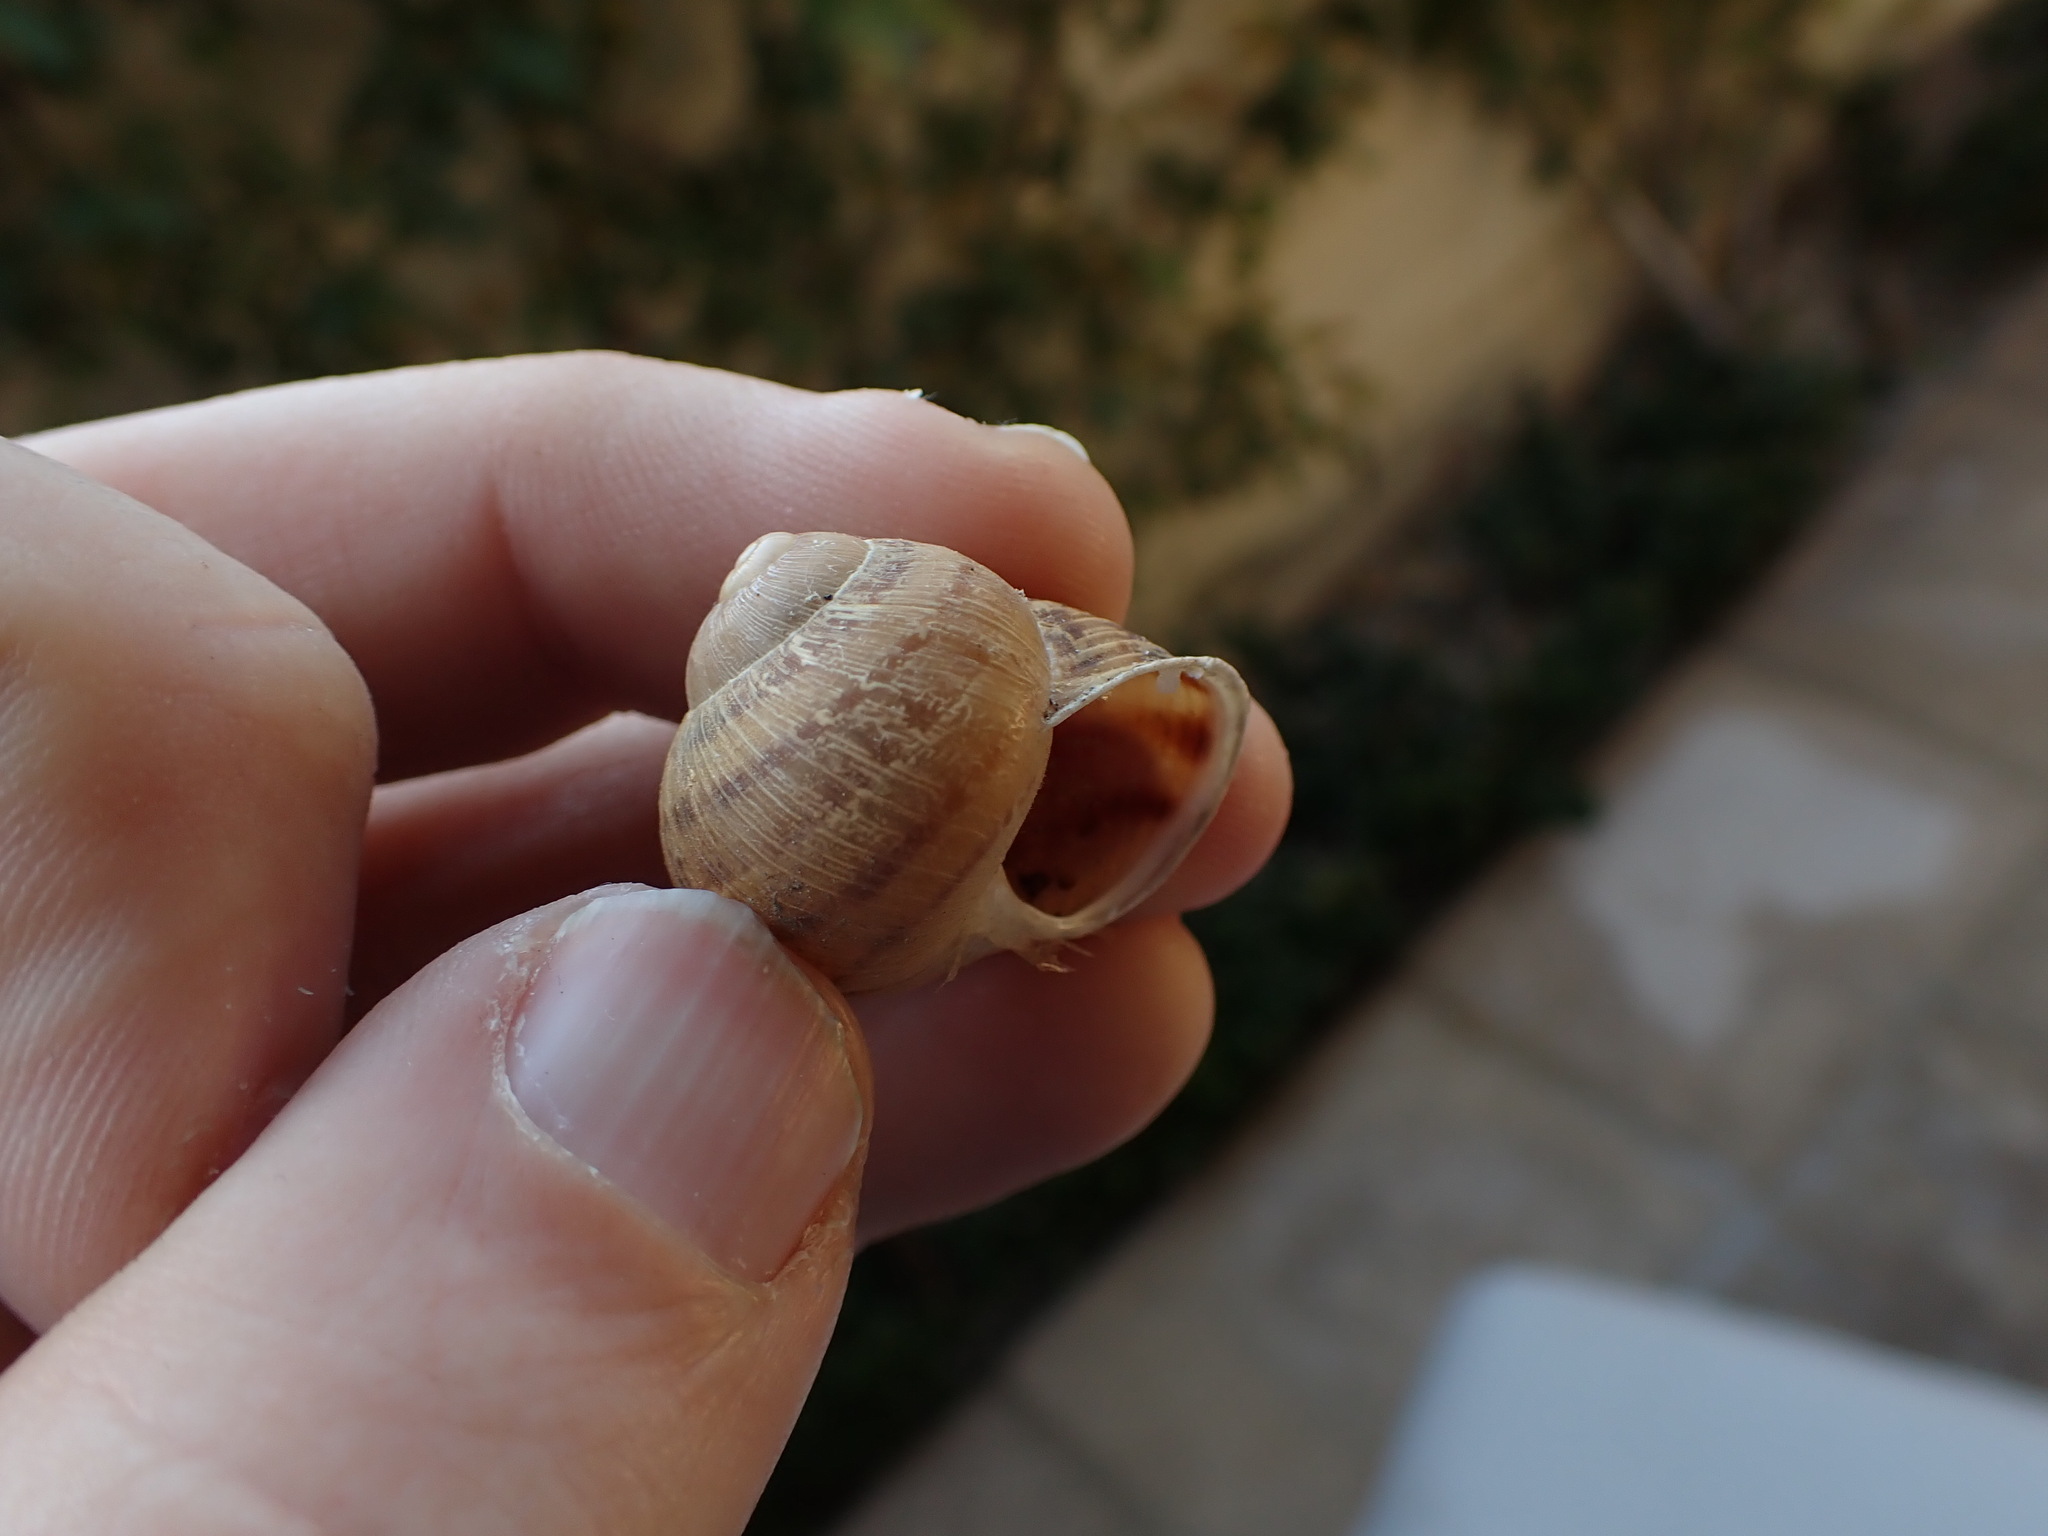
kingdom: Animalia
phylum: Mollusca
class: Gastropoda
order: Stylommatophora
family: Helicidae
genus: Cornu
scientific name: Cornu aspersum
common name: Brown garden snail
